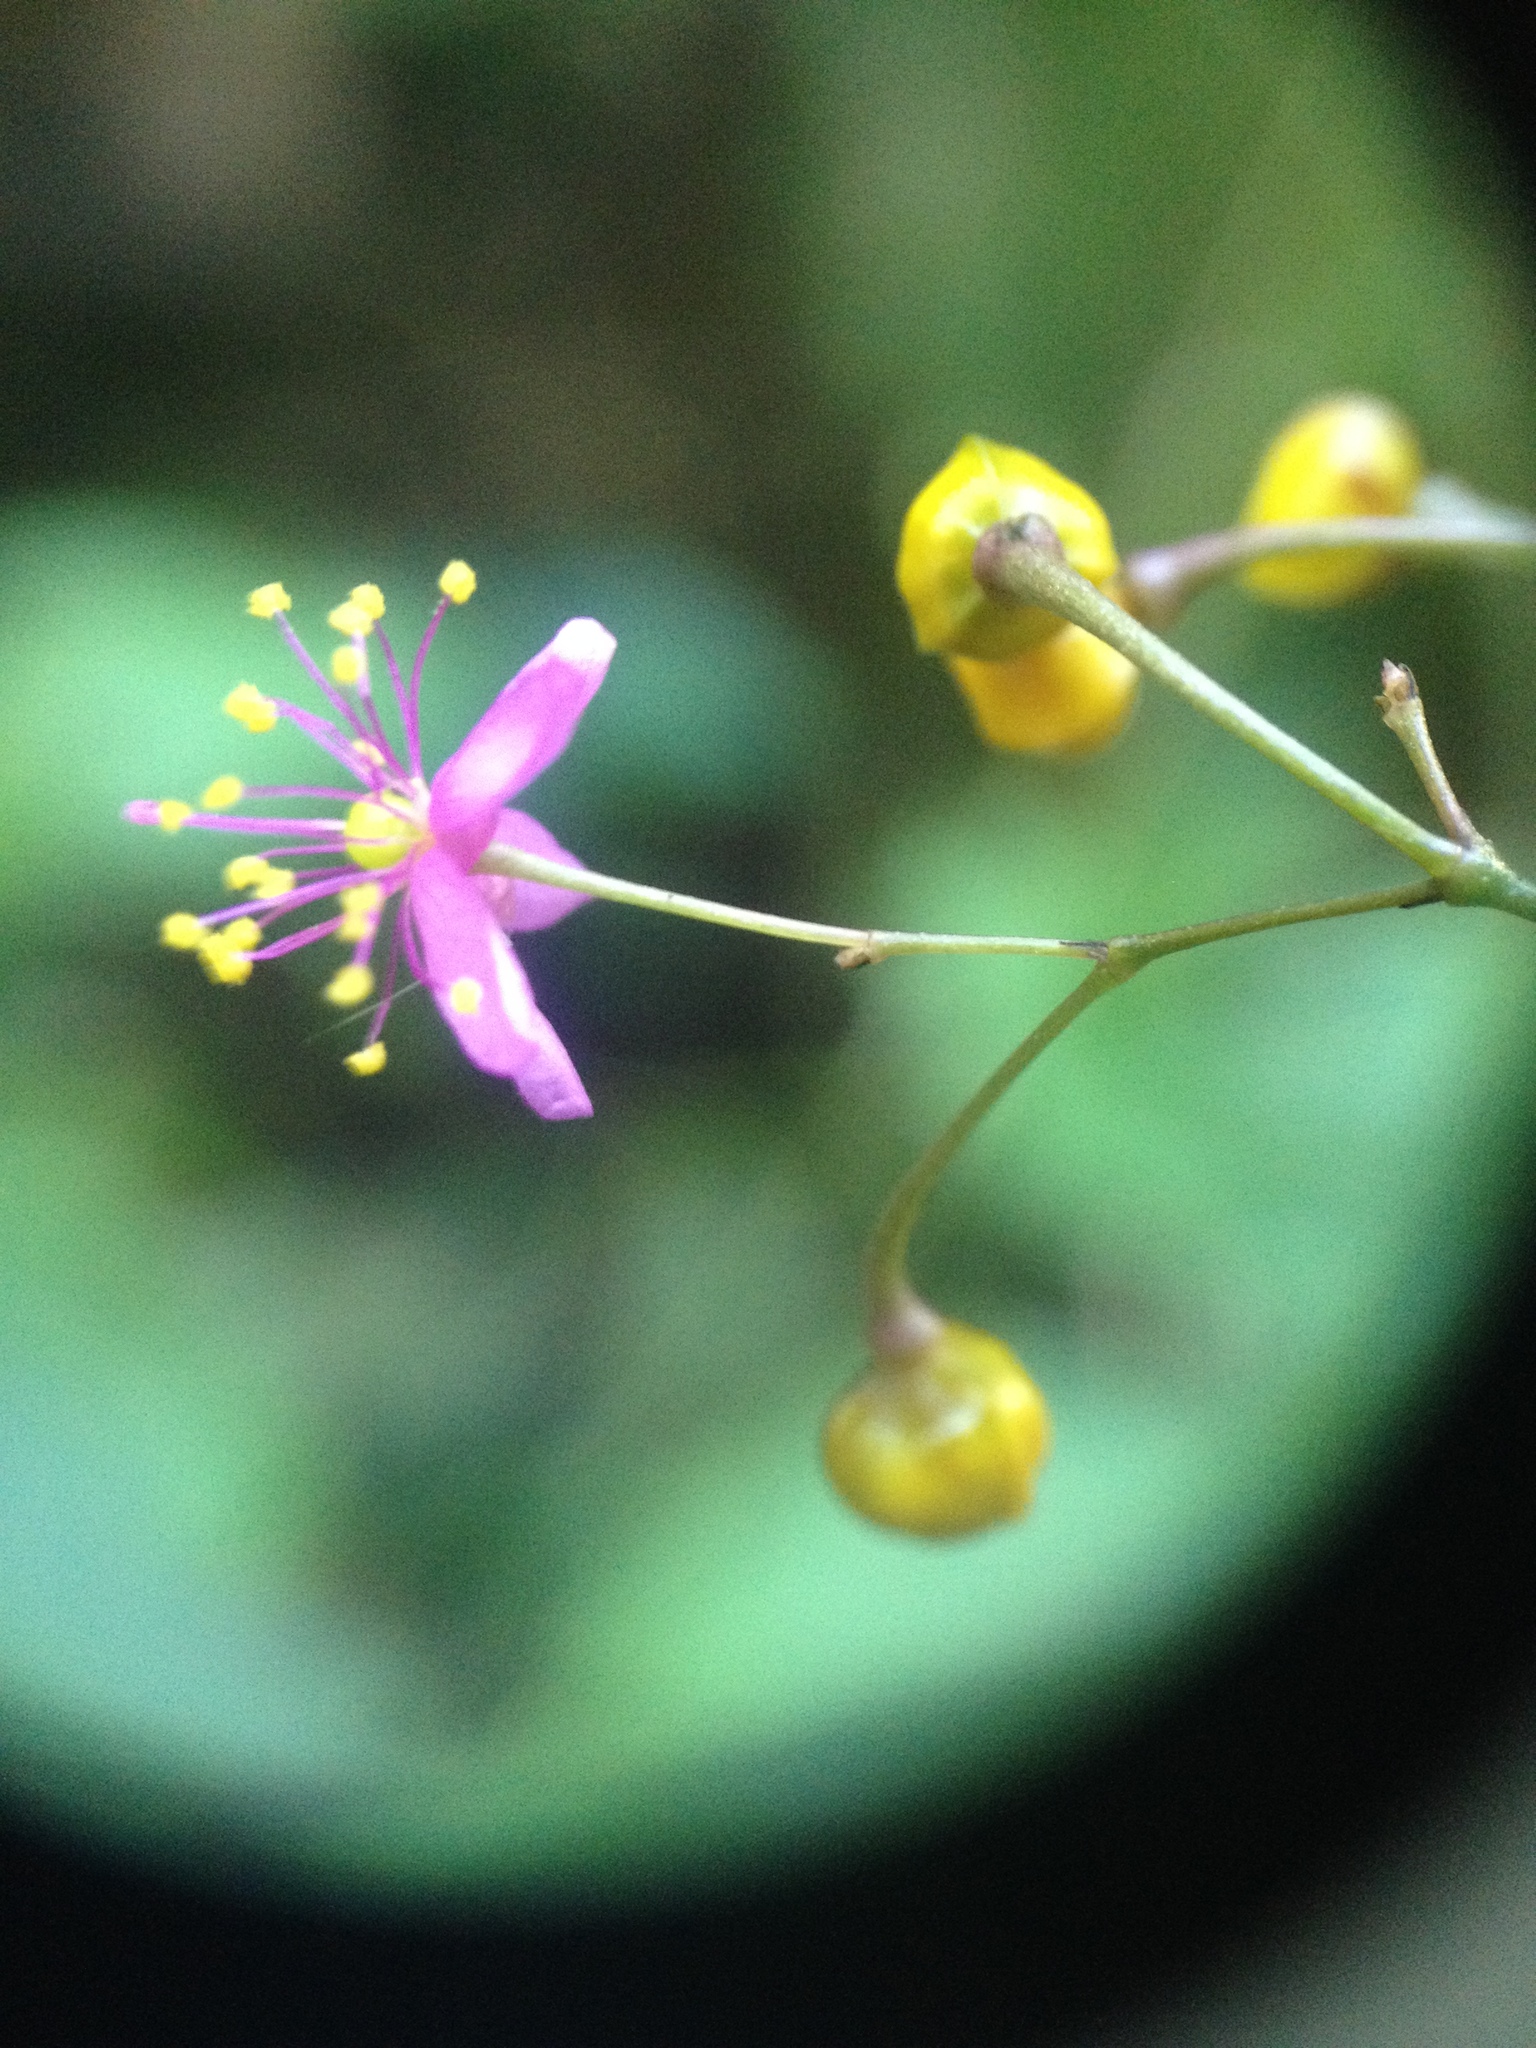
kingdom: Plantae
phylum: Tracheophyta
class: Magnoliopsida
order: Caryophyllales
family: Talinaceae
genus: Talinum
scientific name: Talinum paniculatum
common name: Jewels of opar
